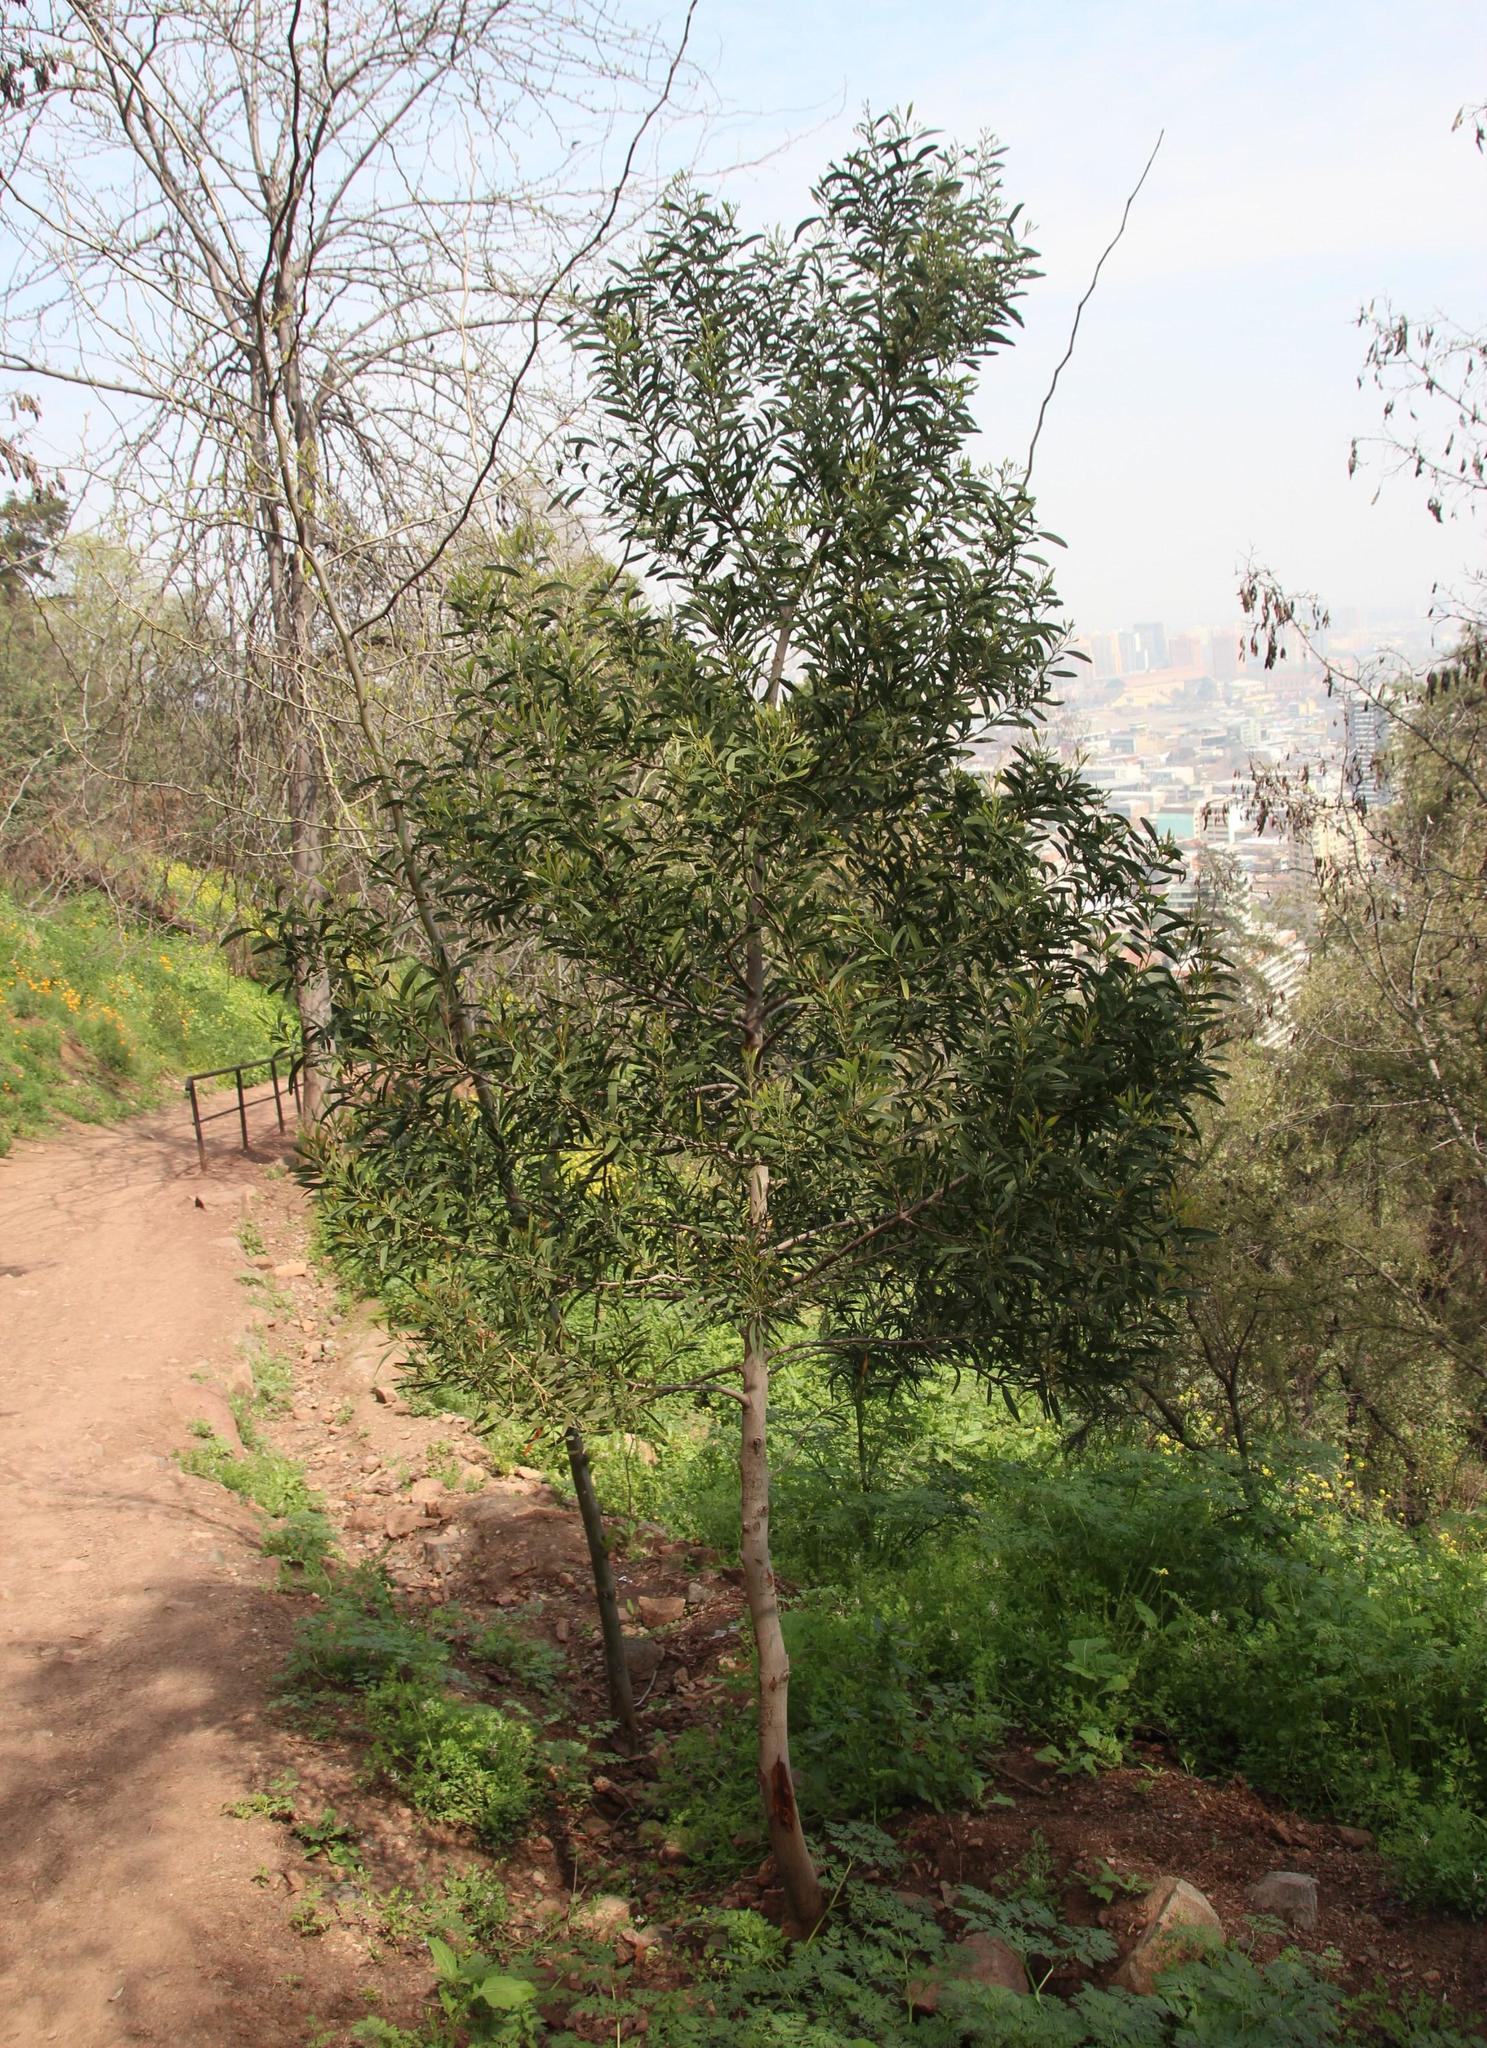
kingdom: Plantae
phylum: Tracheophyta
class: Magnoliopsida
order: Fabales
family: Fabaceae
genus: Acacia
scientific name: Acacia melanoxylon
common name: Blackwood
